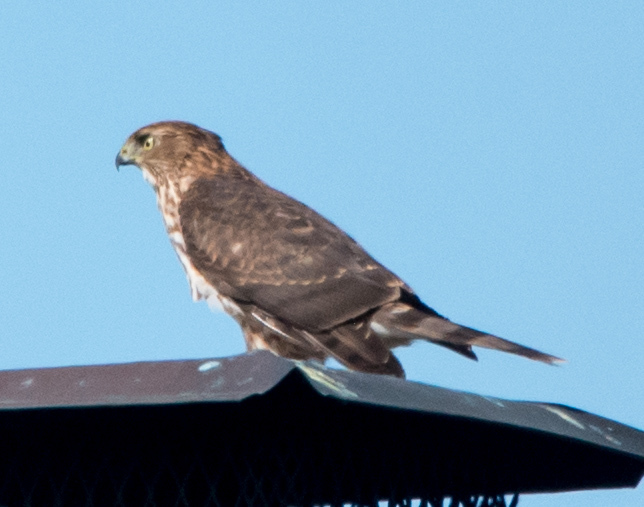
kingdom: Animalia
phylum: Chordata
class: Aves
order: Accipitriformes
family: Accipitridae
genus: Accipiter
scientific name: Accipiter cooperii
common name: Cooper's hawk
